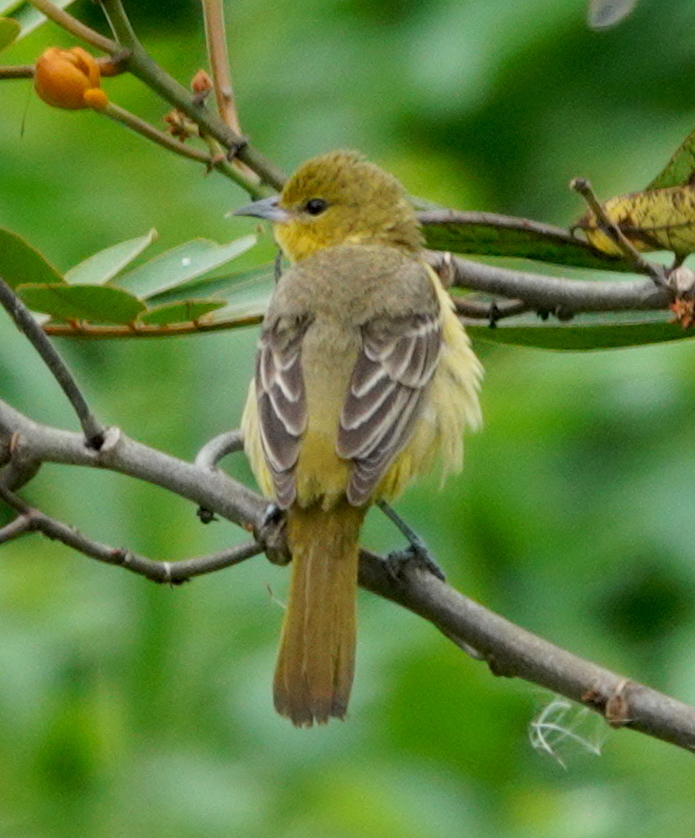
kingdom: Animalia
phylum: Chordata
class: Aves
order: Passeriformes
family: Icteridae
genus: Icterus
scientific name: Icterus spurius
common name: Orchard oriole
